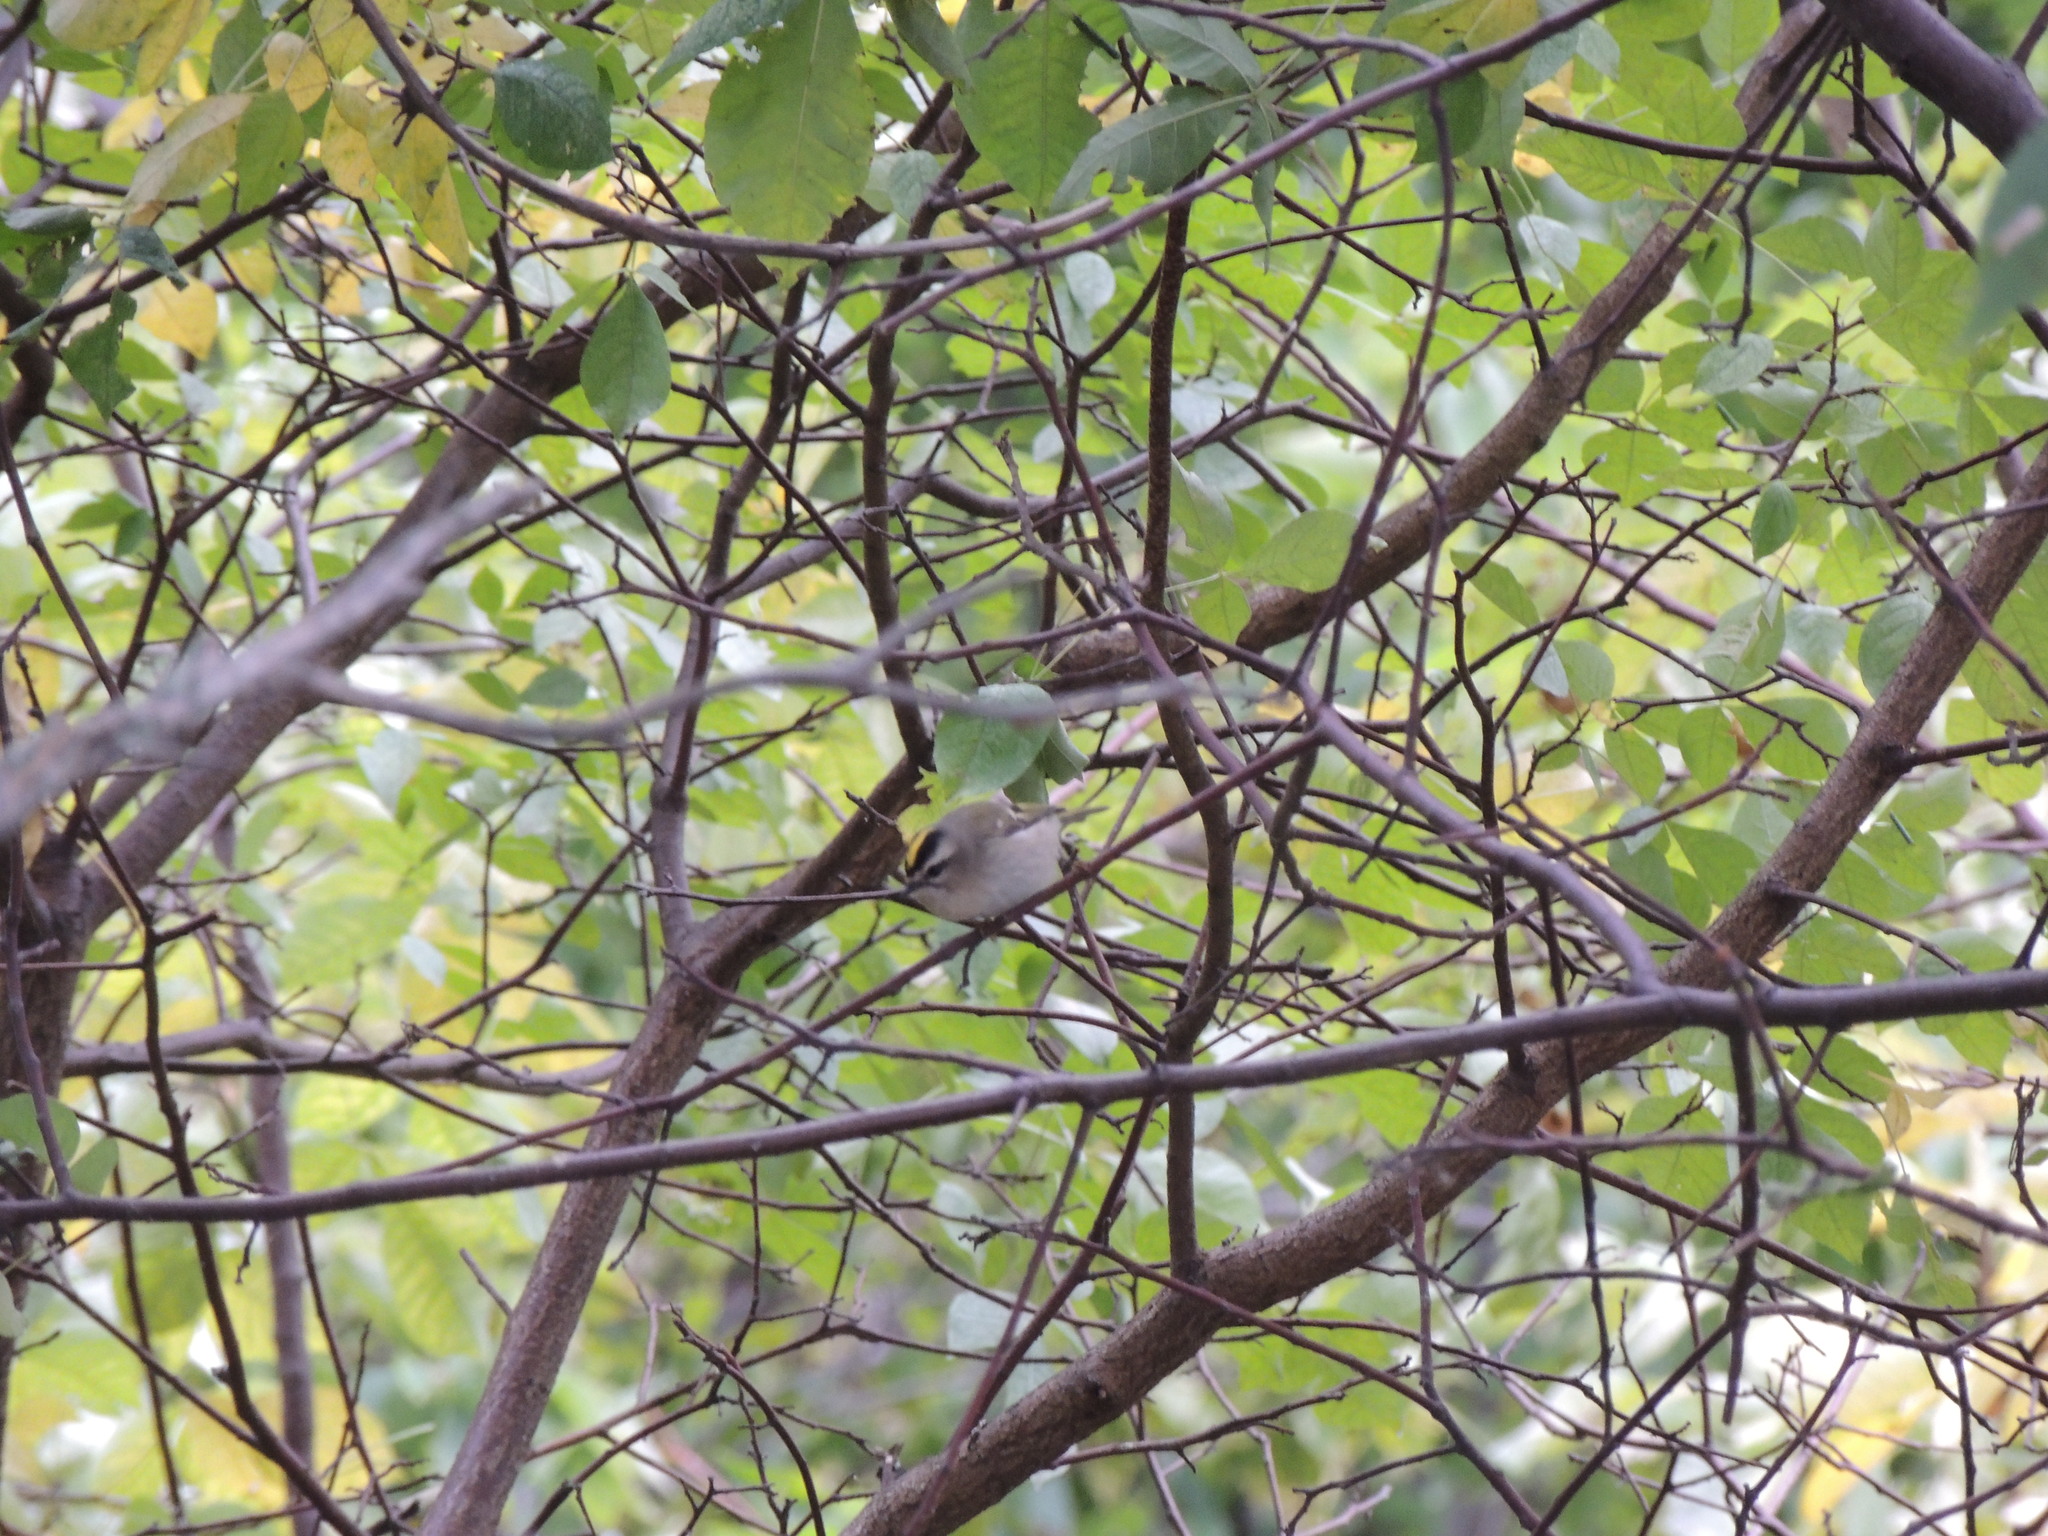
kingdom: Animalia
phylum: Chordata
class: Aves
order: Passeriformes
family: Regulidae
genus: Regulus
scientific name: Regulus satrapa
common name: Golden-crowned kinglet
